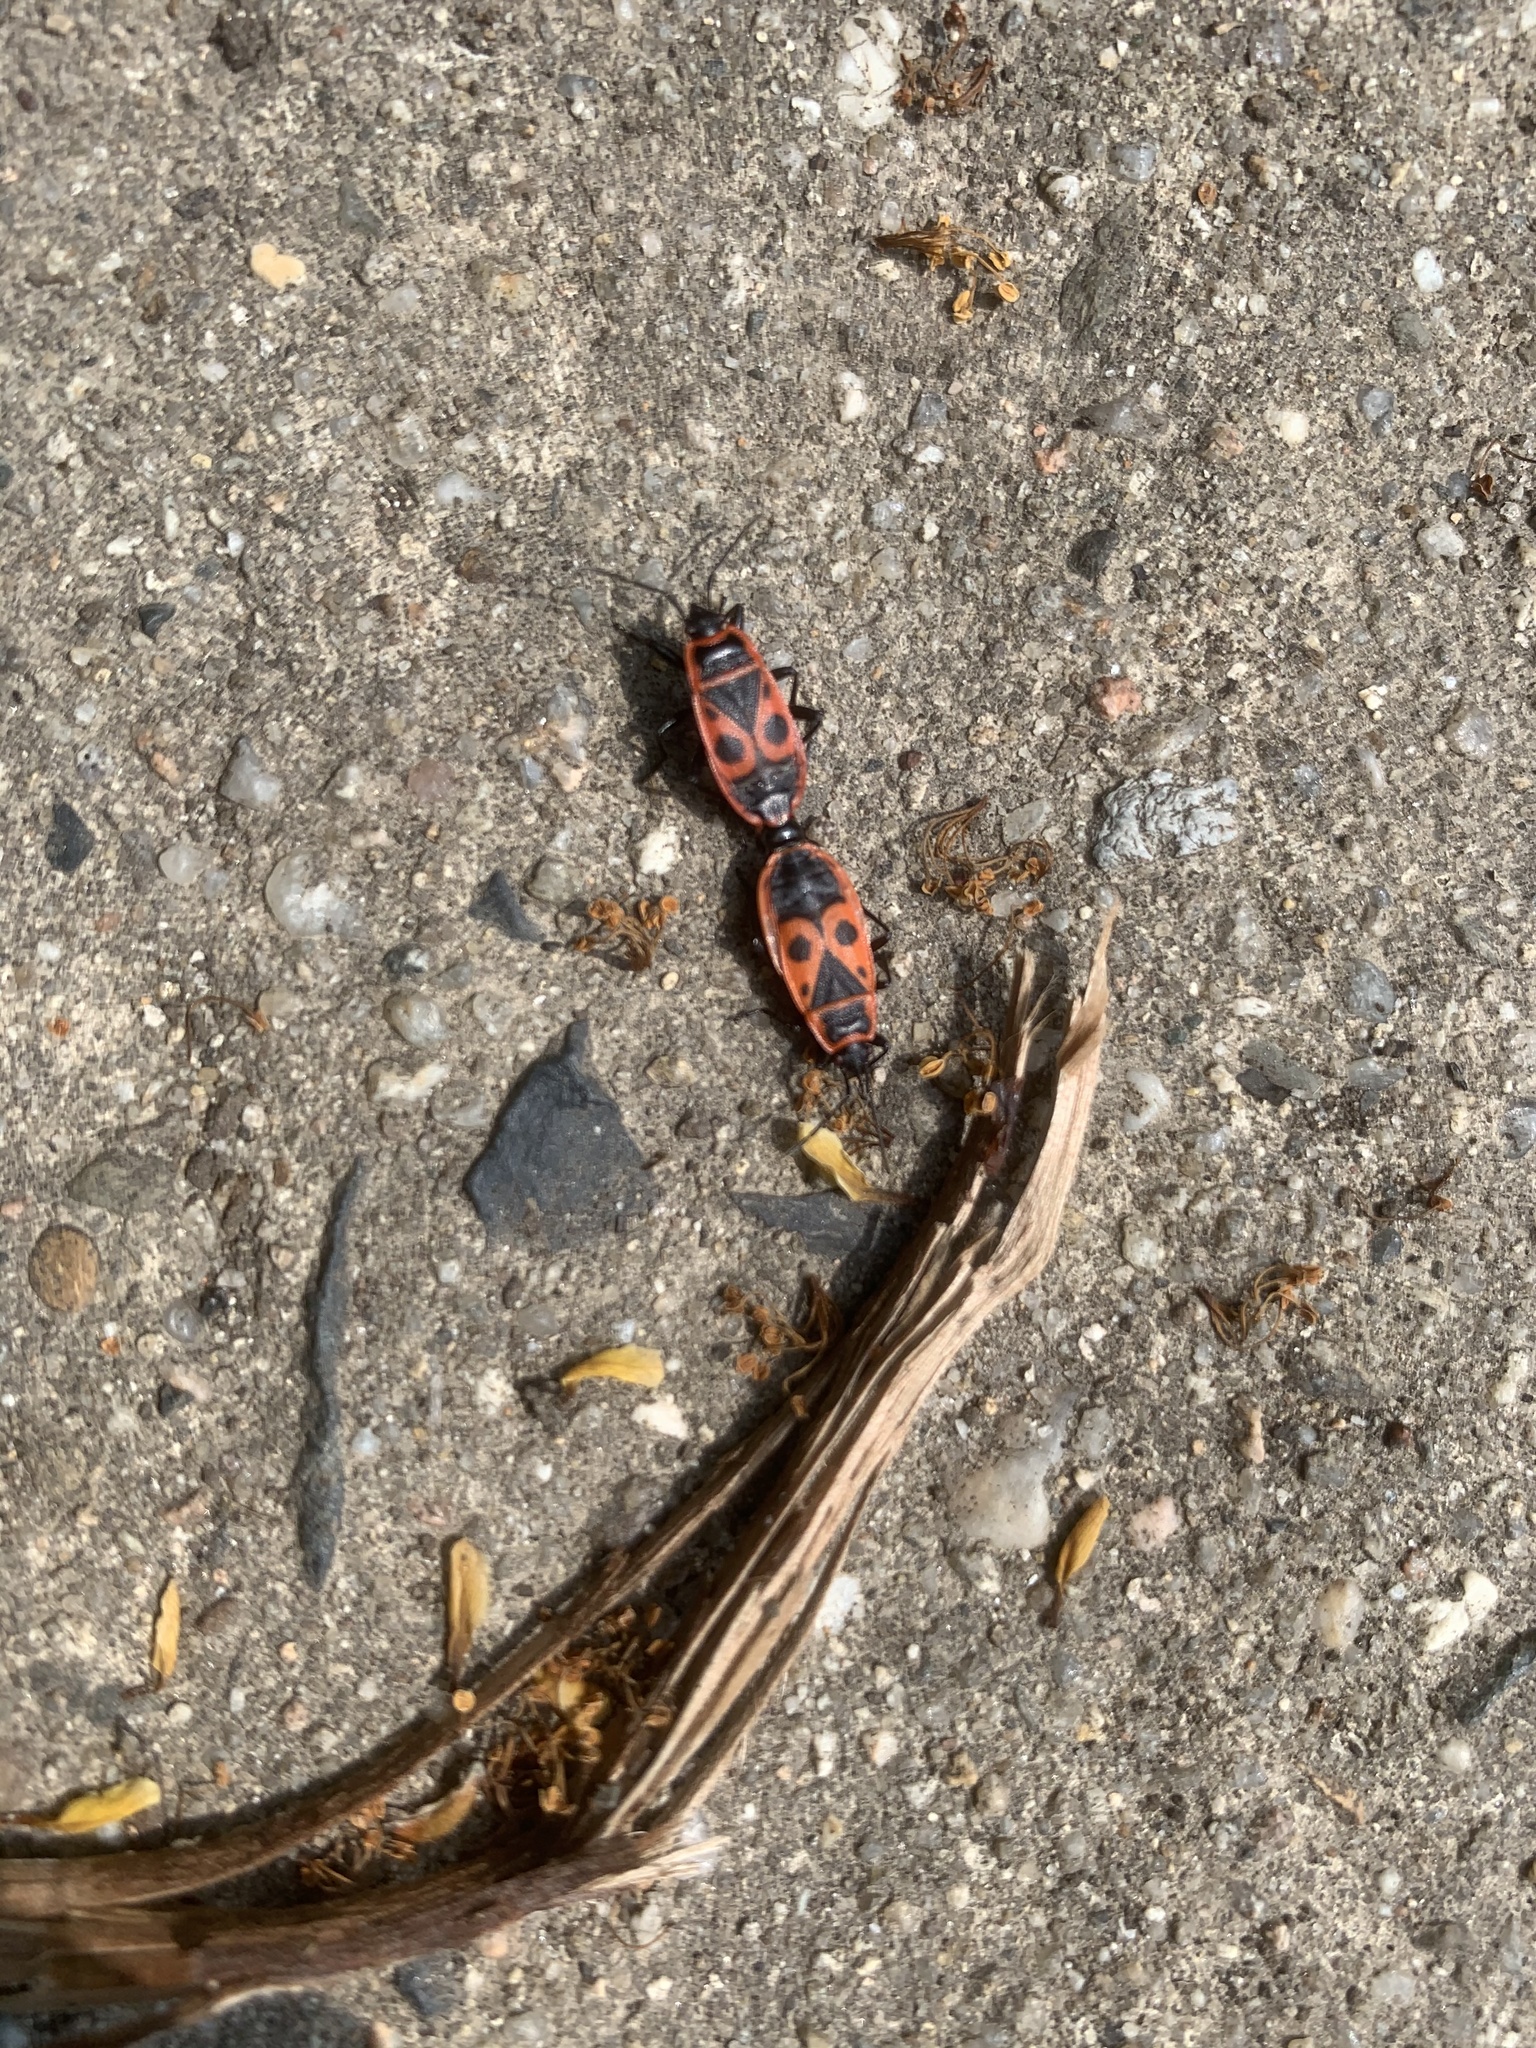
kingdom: Animalia
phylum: Arthropoda
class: Insecta
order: Hemiptera
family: Pyrrhocoridae
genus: Pyrrhocoris
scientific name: Pyrrhocoris apterus
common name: Firebug
